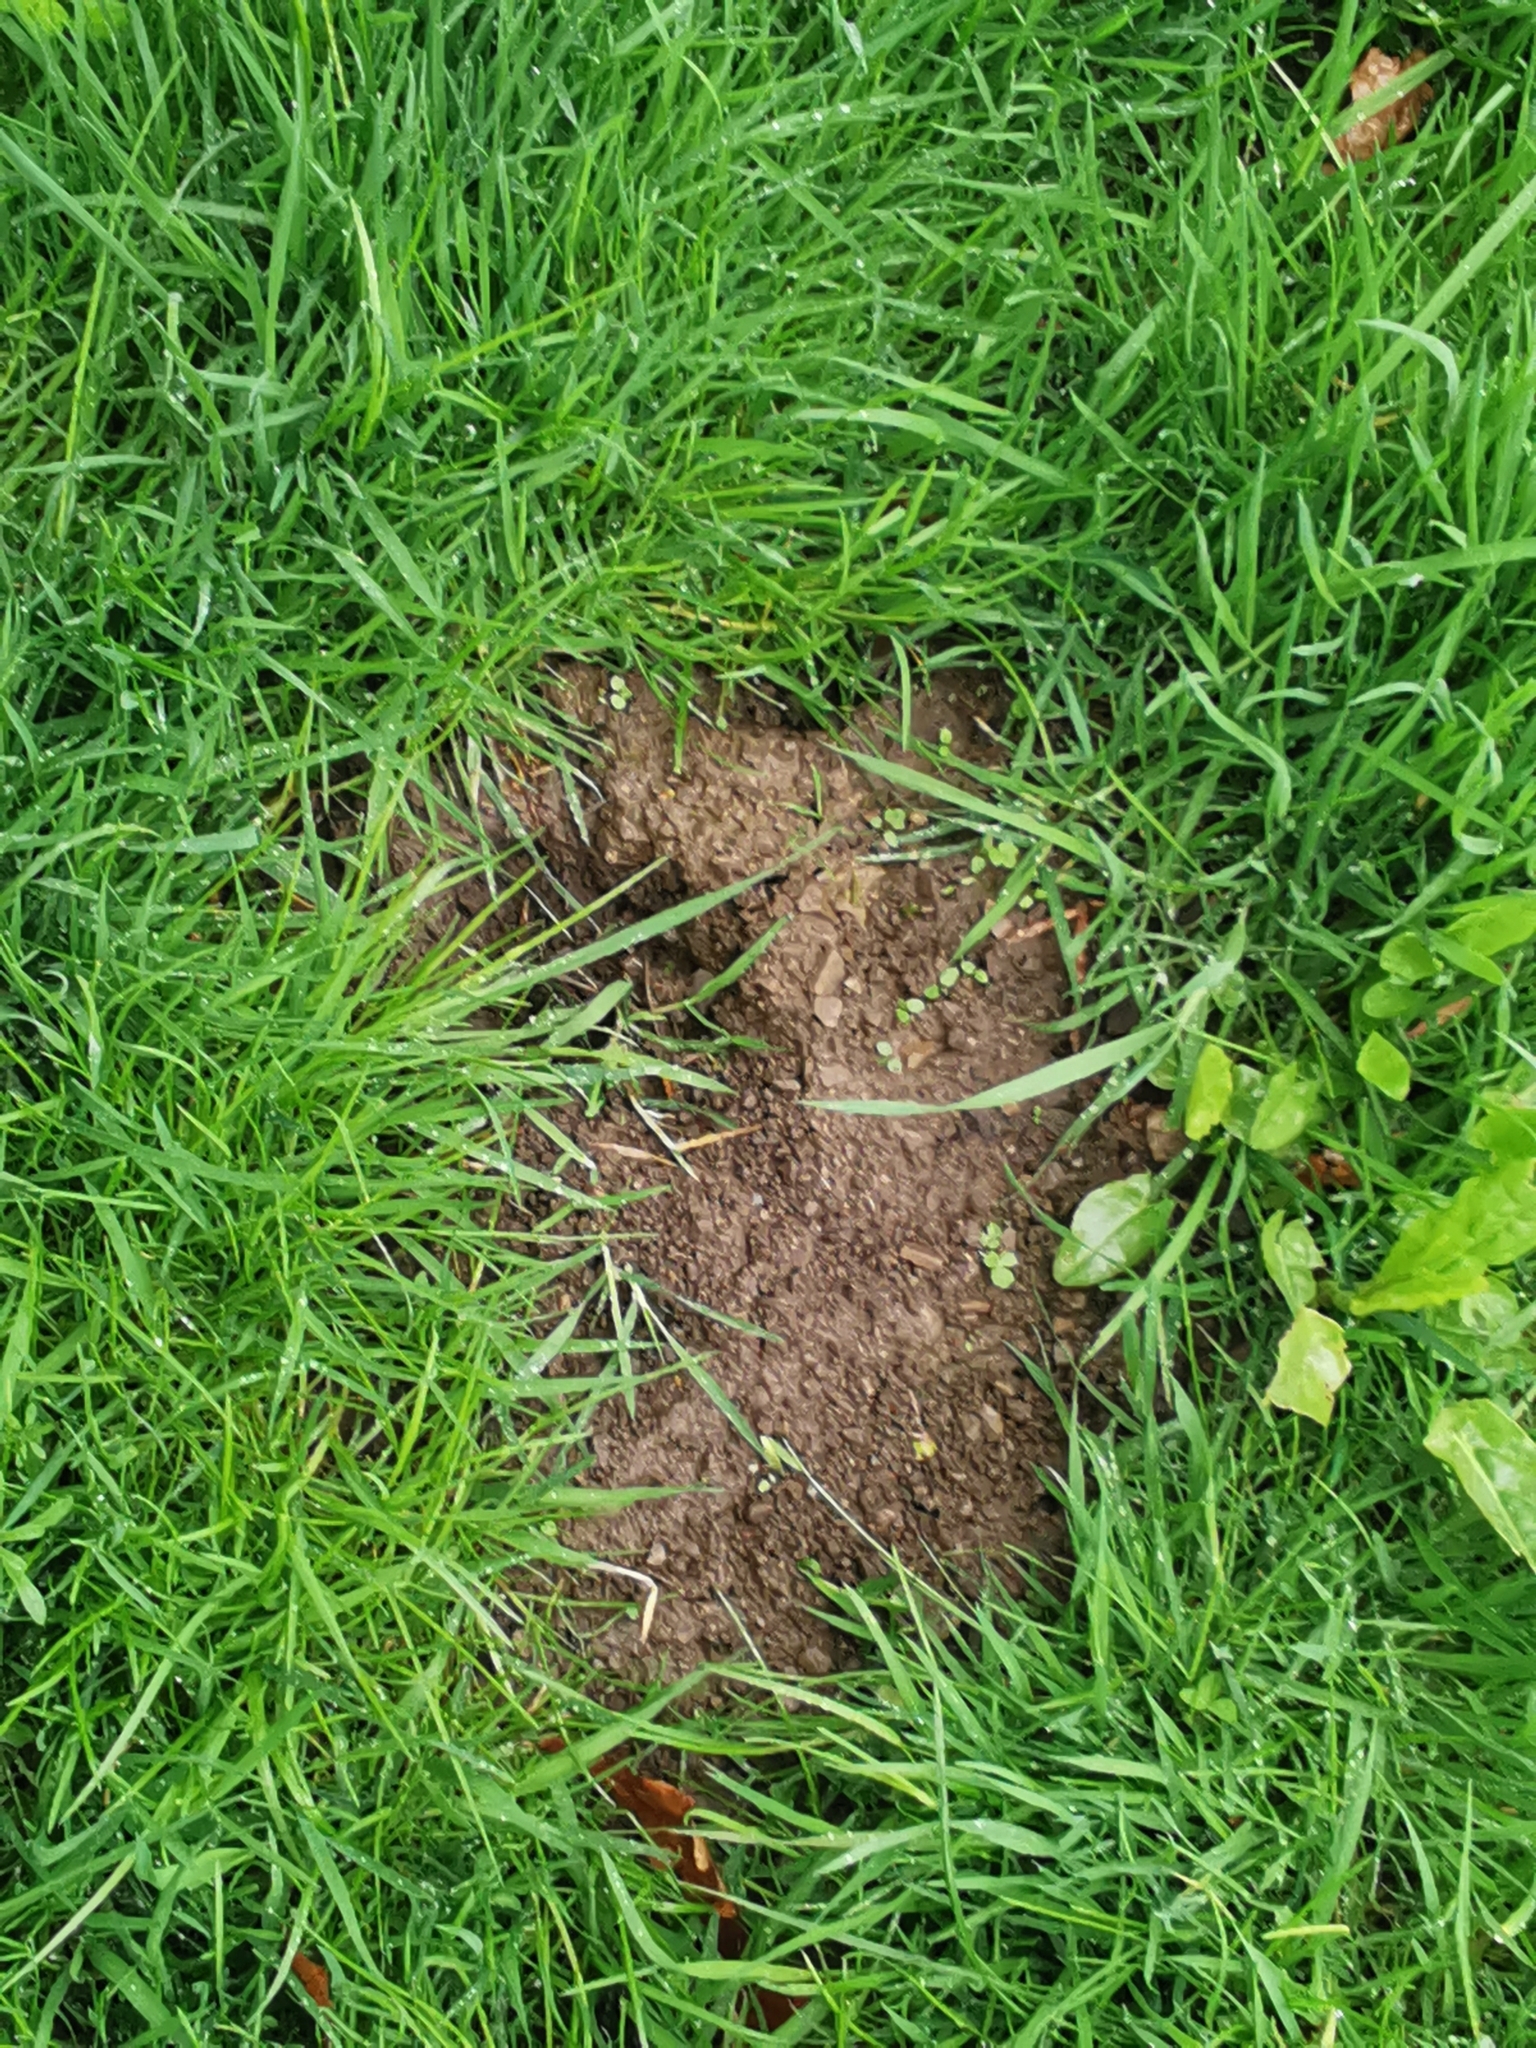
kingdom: Animalia
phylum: Chordata
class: Mammalia
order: Soricomorpha
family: Talpidae
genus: Talpa
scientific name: Talpa europaea
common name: European mole
